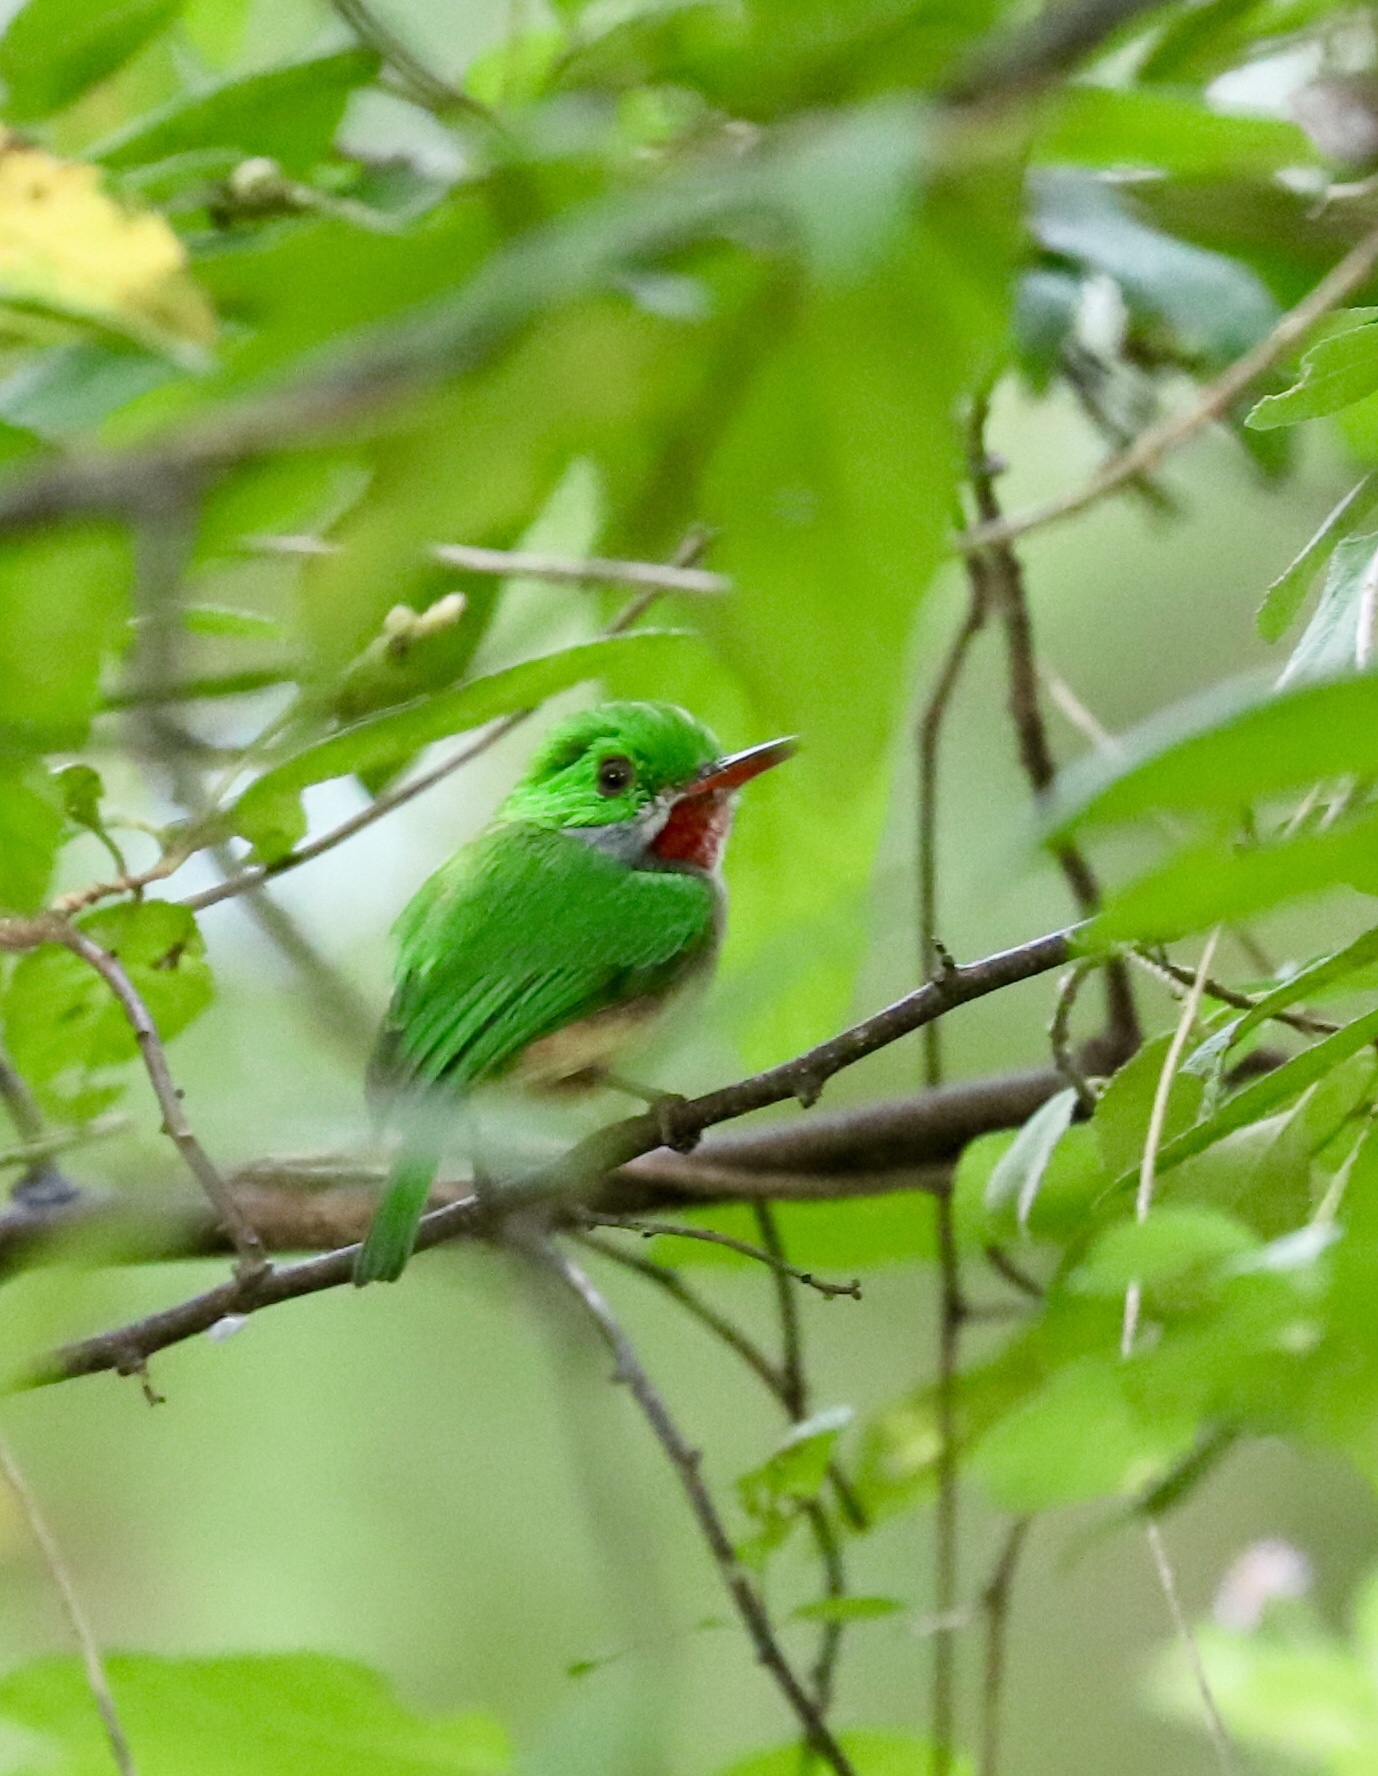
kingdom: Animalia
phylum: Chordata
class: Aves
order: Coraciiformes
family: Todidae
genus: Todus
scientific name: Todus subulatus
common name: Broad-billed tody
